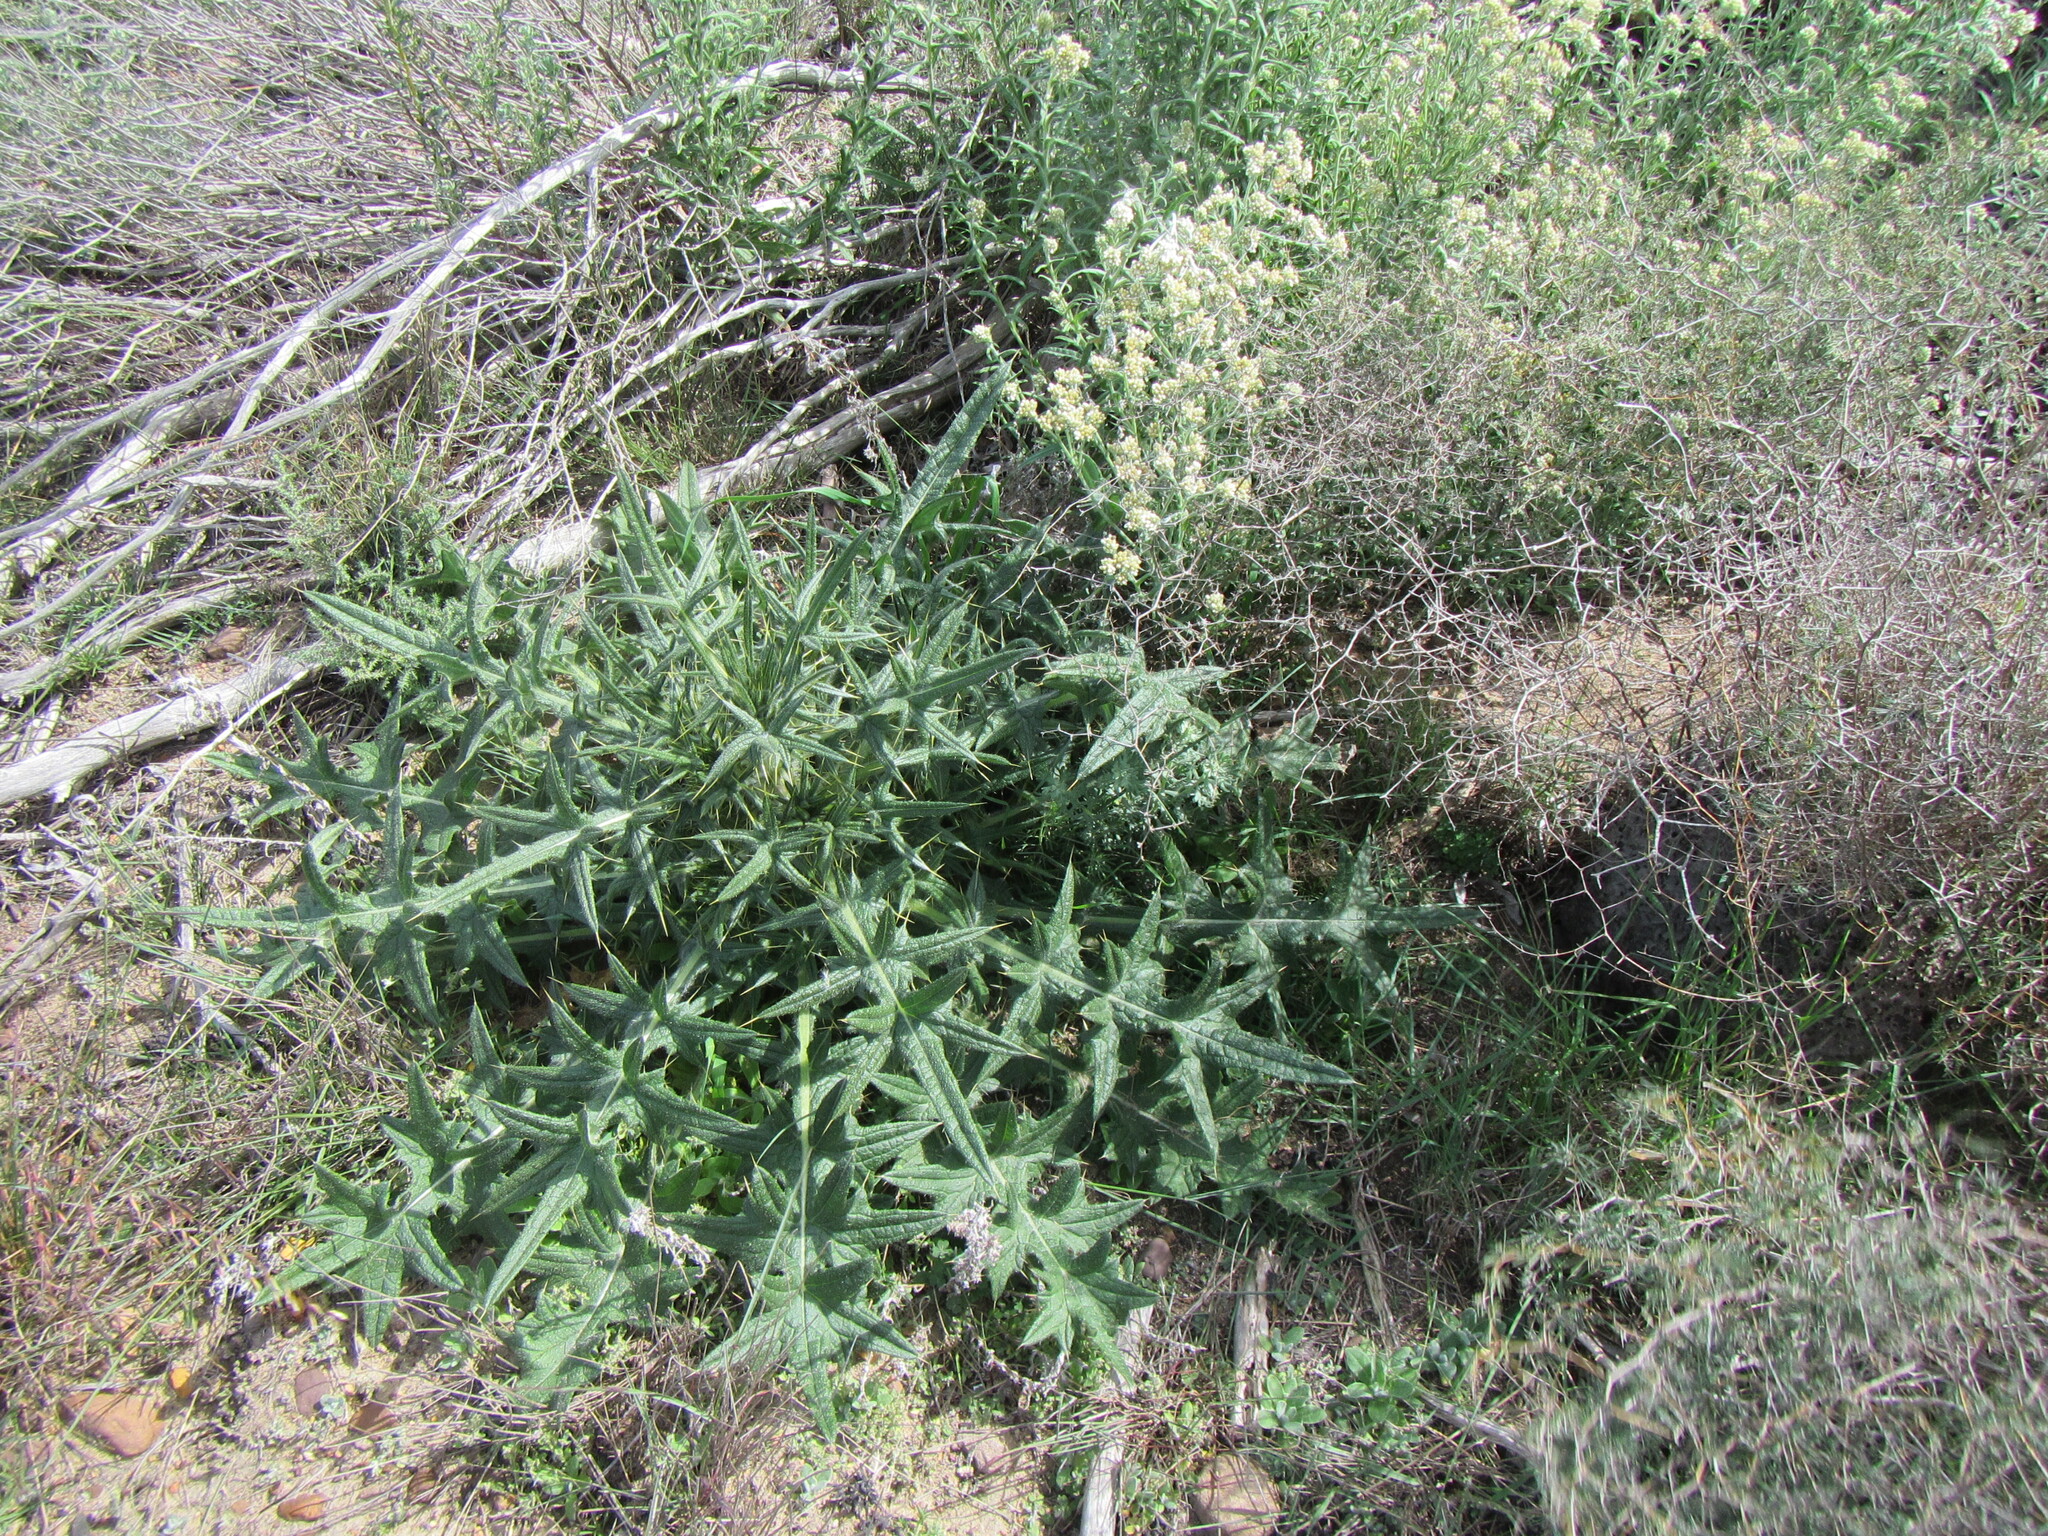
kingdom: Plantae
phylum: Tracheophyta
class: Magnoliopsida
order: Asterales
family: Asteraceae
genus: Cirsium
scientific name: Cirsium vulgare
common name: Bull thistle
